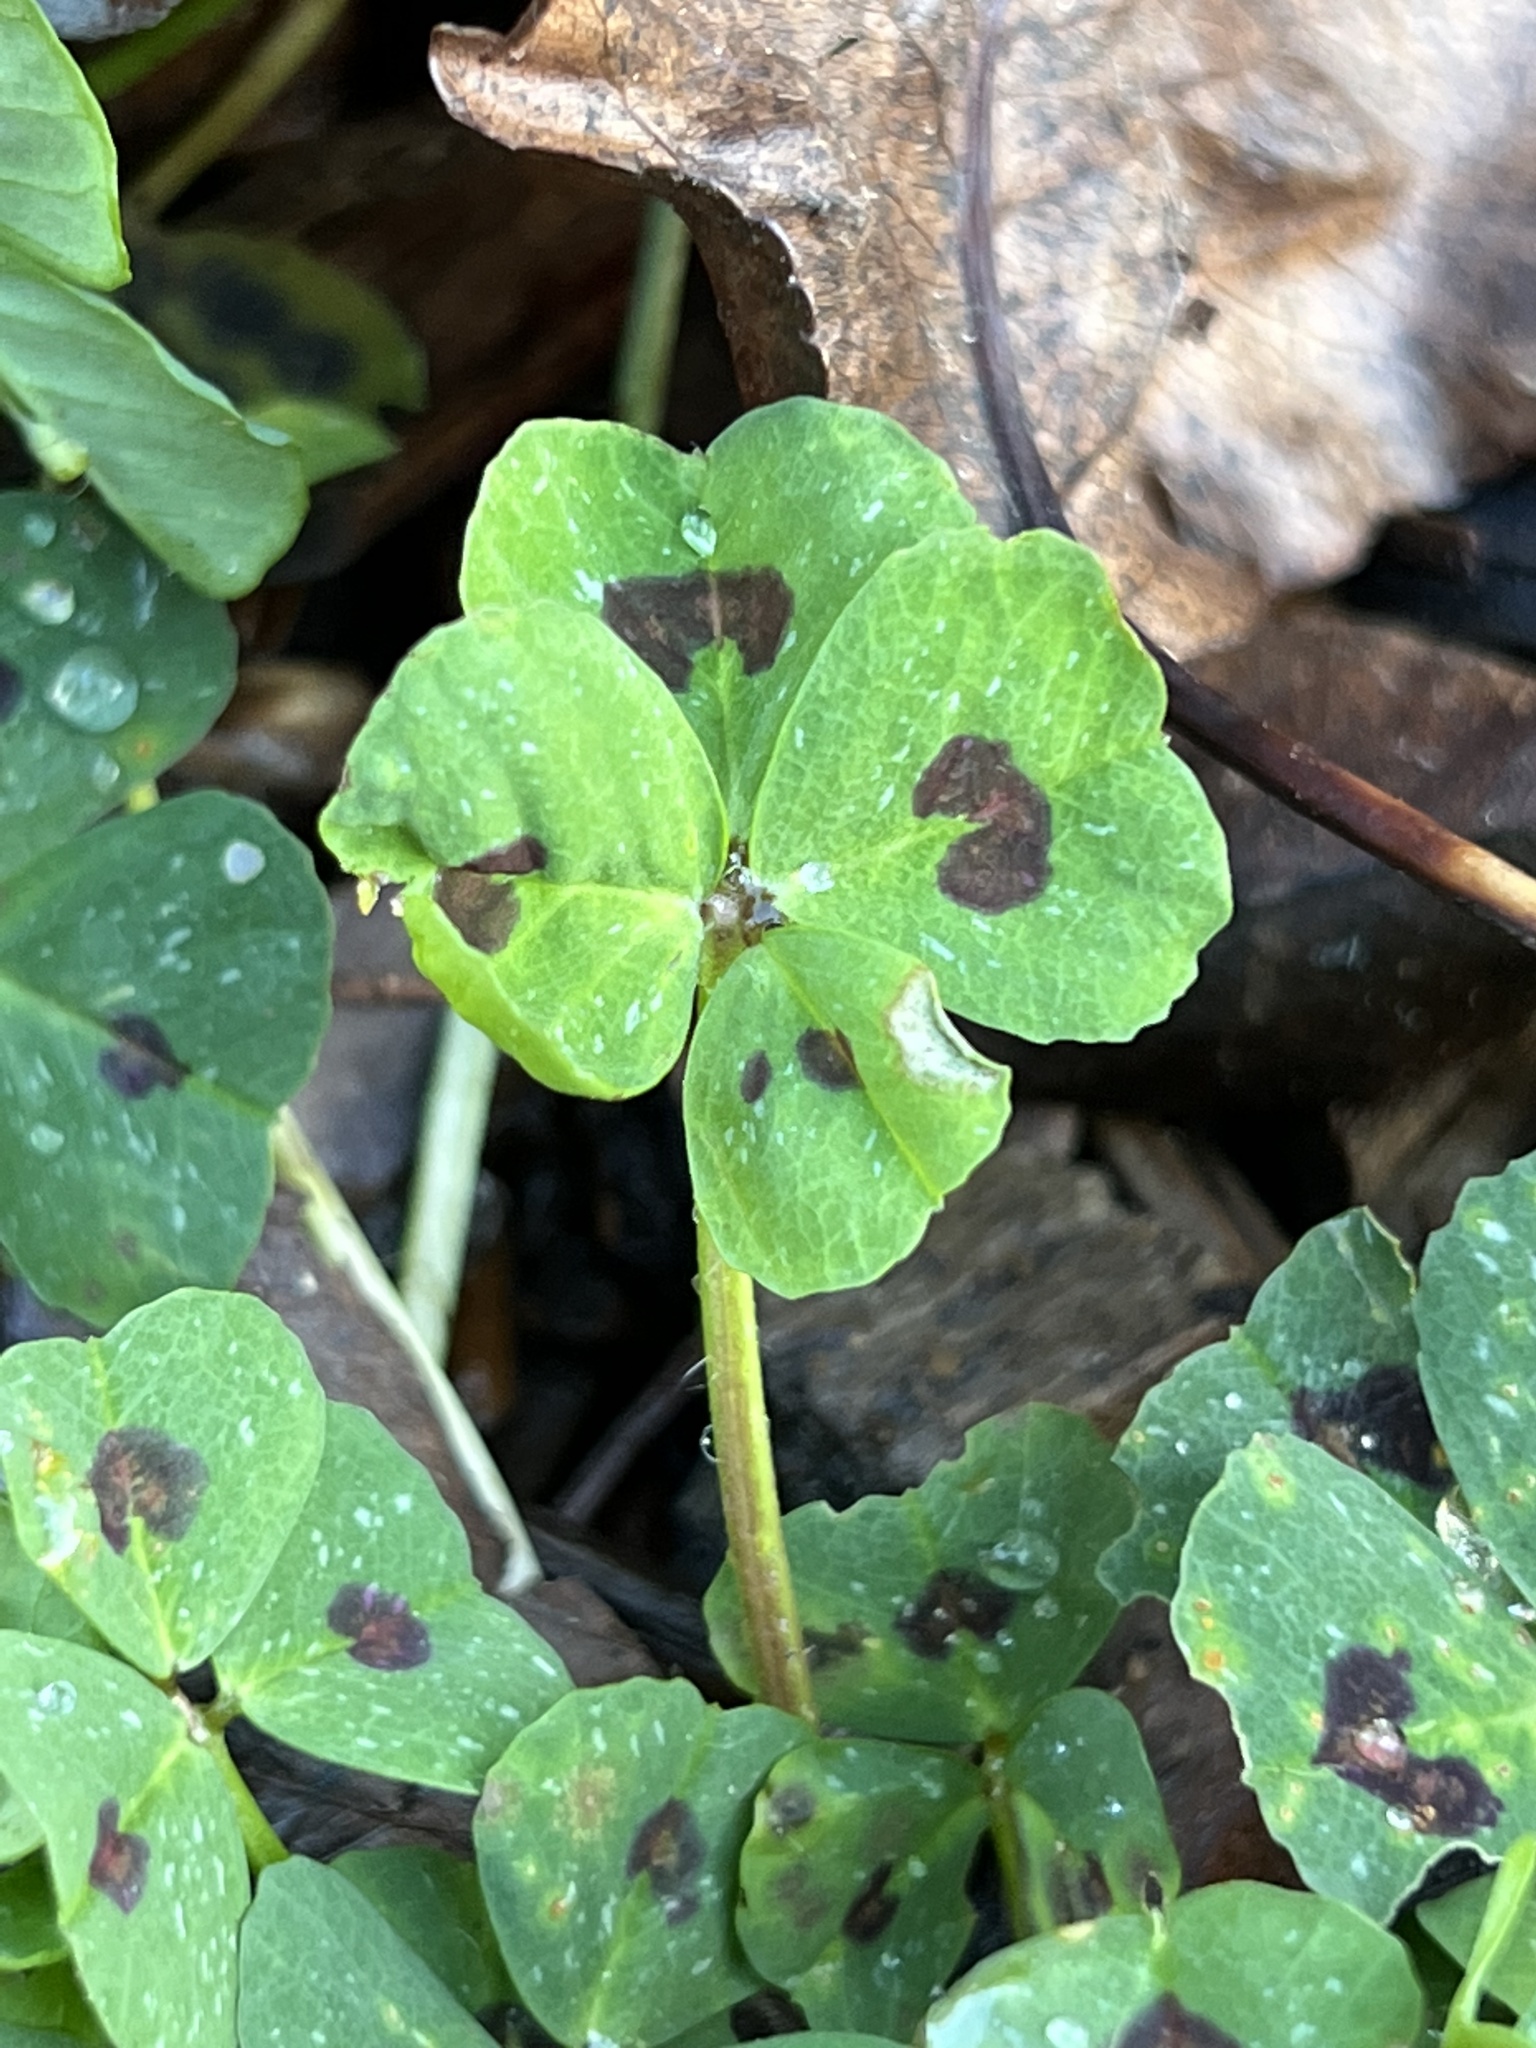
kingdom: Plantae
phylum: Tracheophyta
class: Magnoliopsida
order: Fabales
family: Fabaceae
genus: Medicago
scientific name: Medicago arabica
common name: Spotted medick
